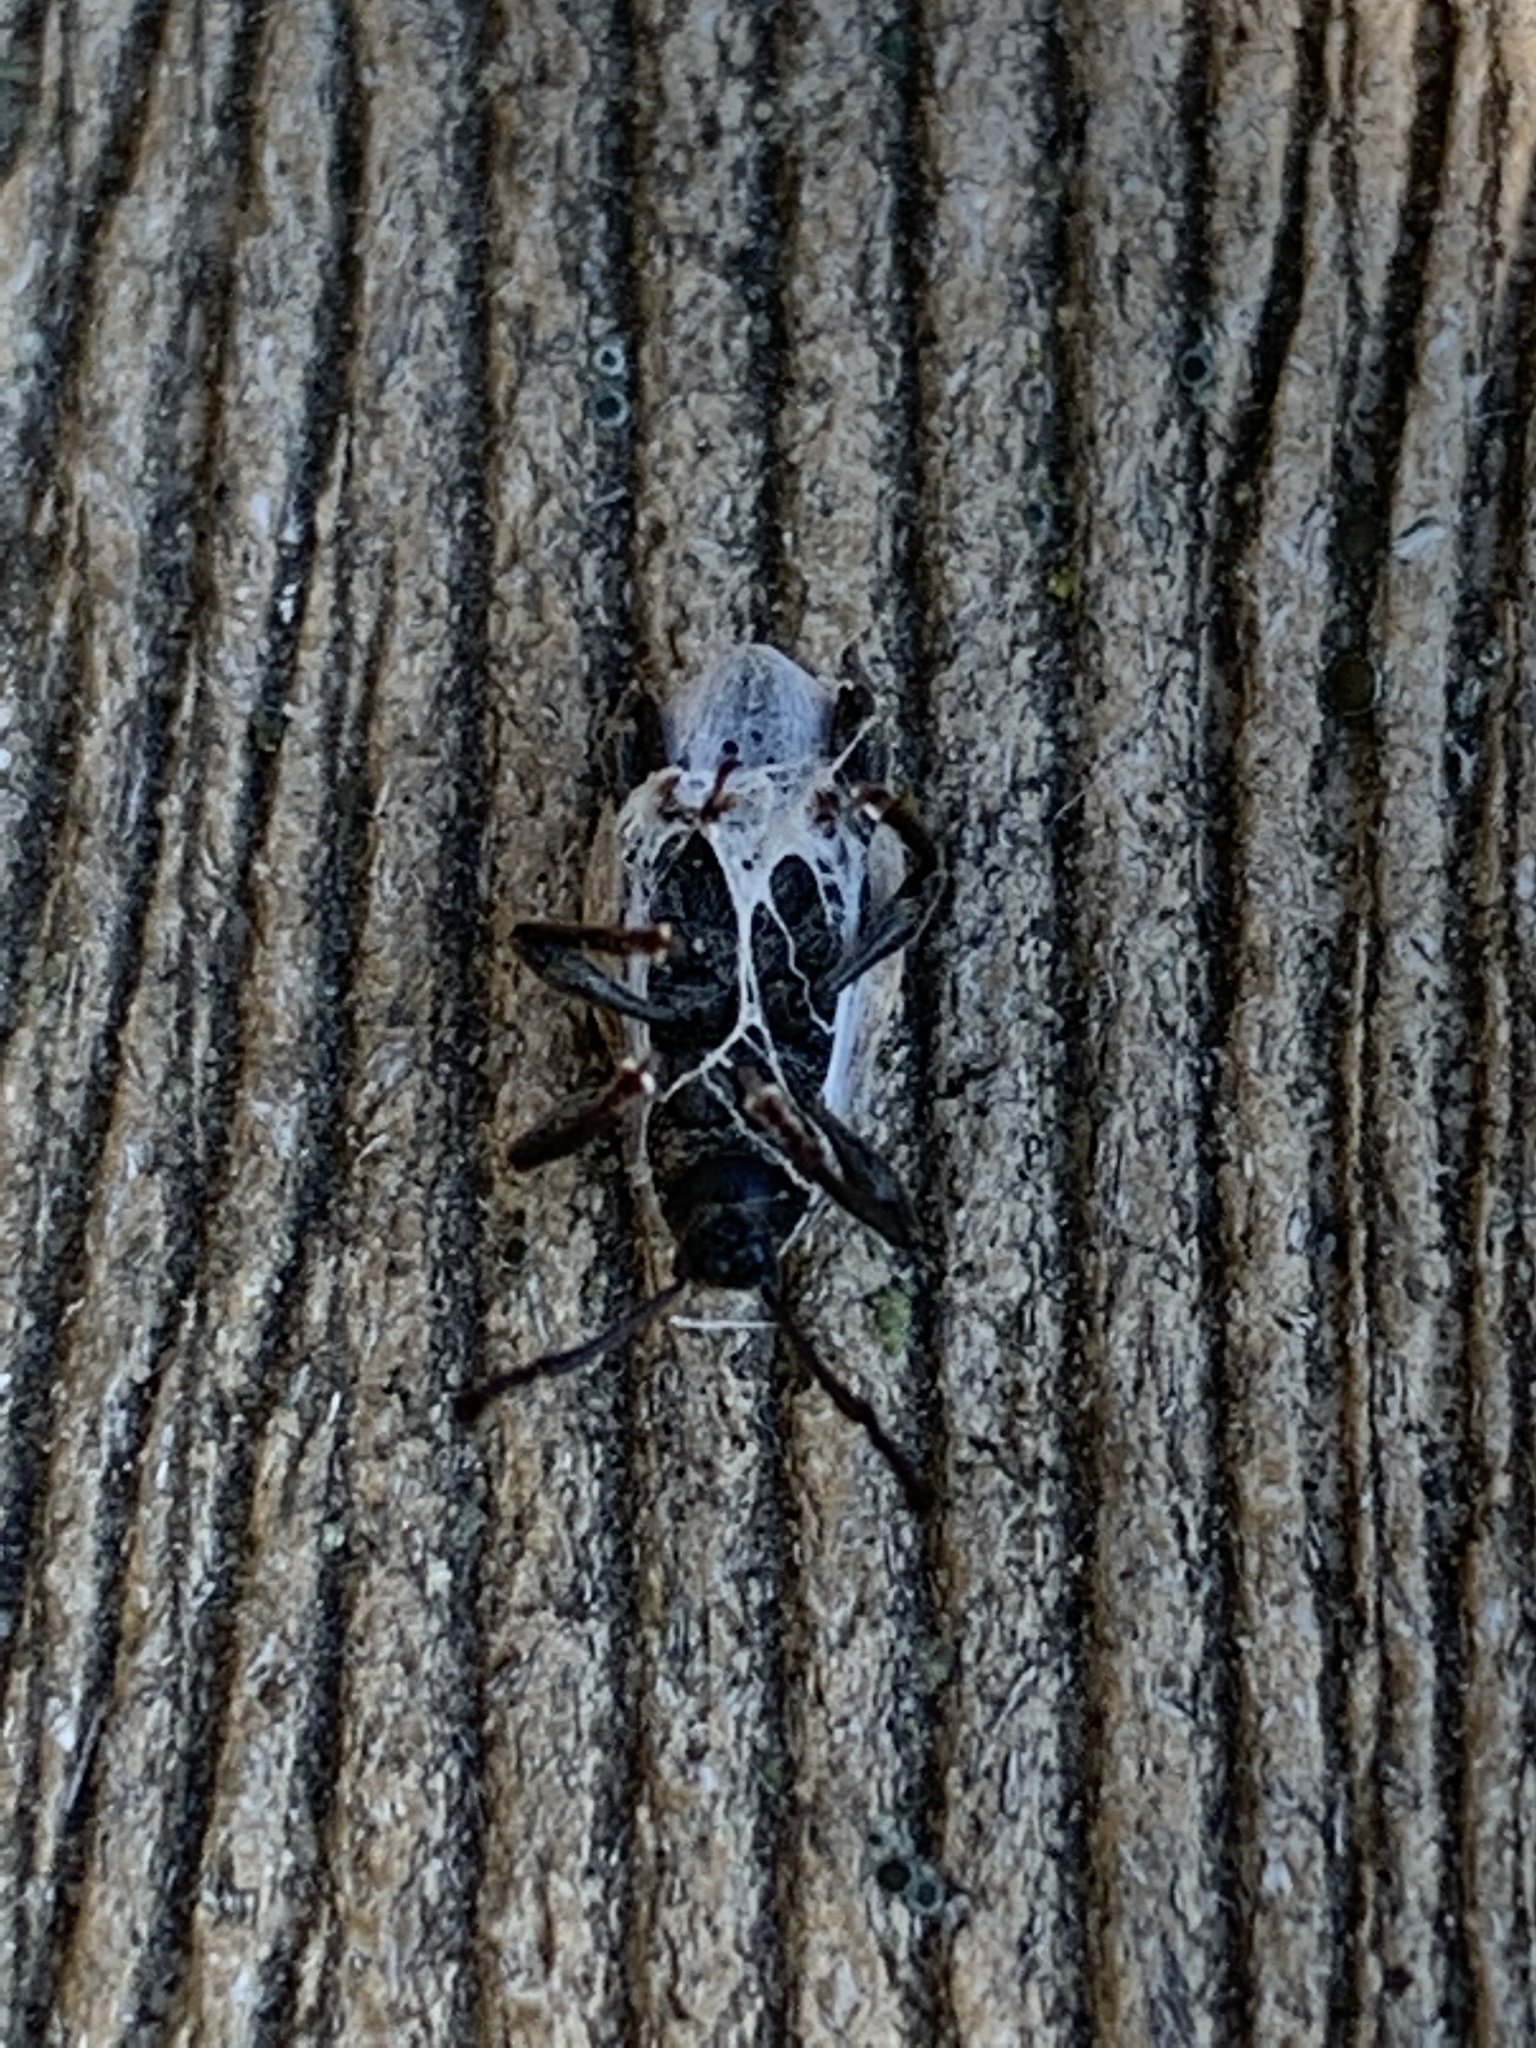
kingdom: Animalia
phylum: Arthropoda
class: Insecta
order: Coleoptera
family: Curculionidae
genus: Otiorhynchus
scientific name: Otiorhynchus raucus
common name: Weevil
